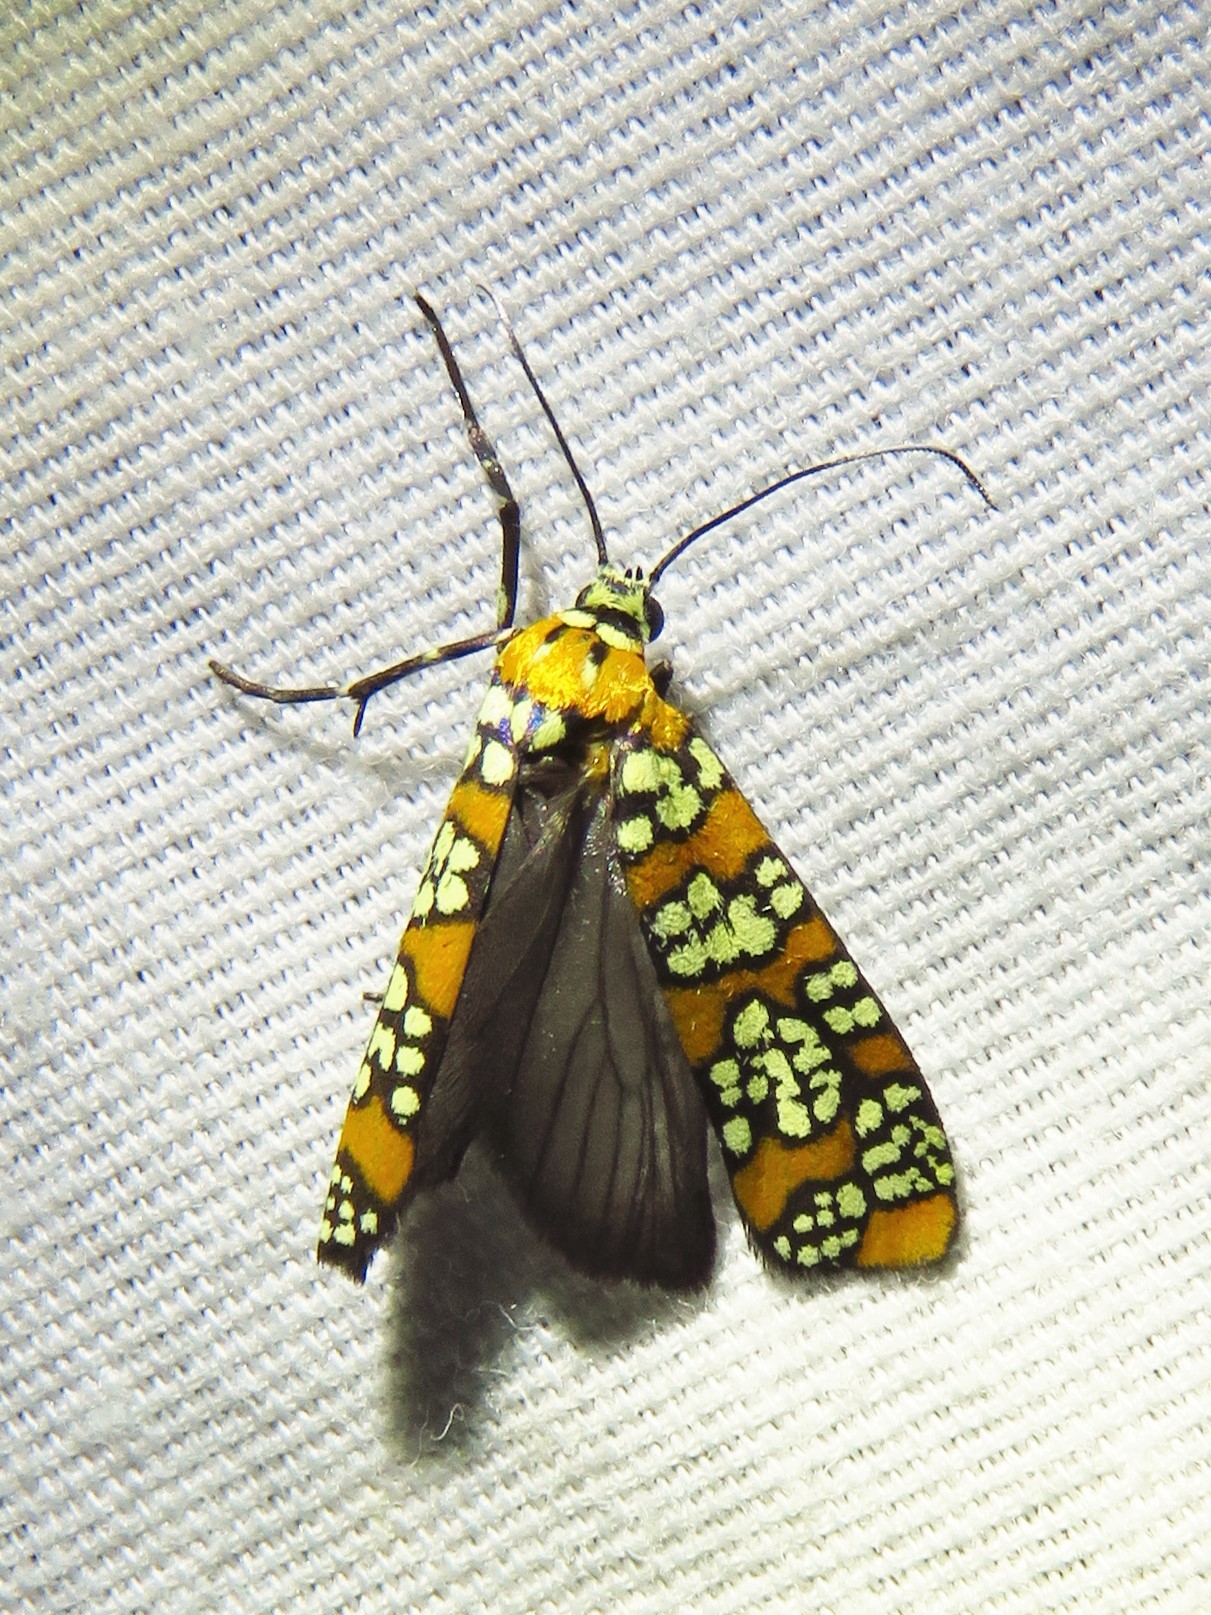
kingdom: Animalia
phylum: Arthropoda
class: Insecta
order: Lepidoptera
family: Attevidae
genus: Atteva
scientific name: Atteva punctella
